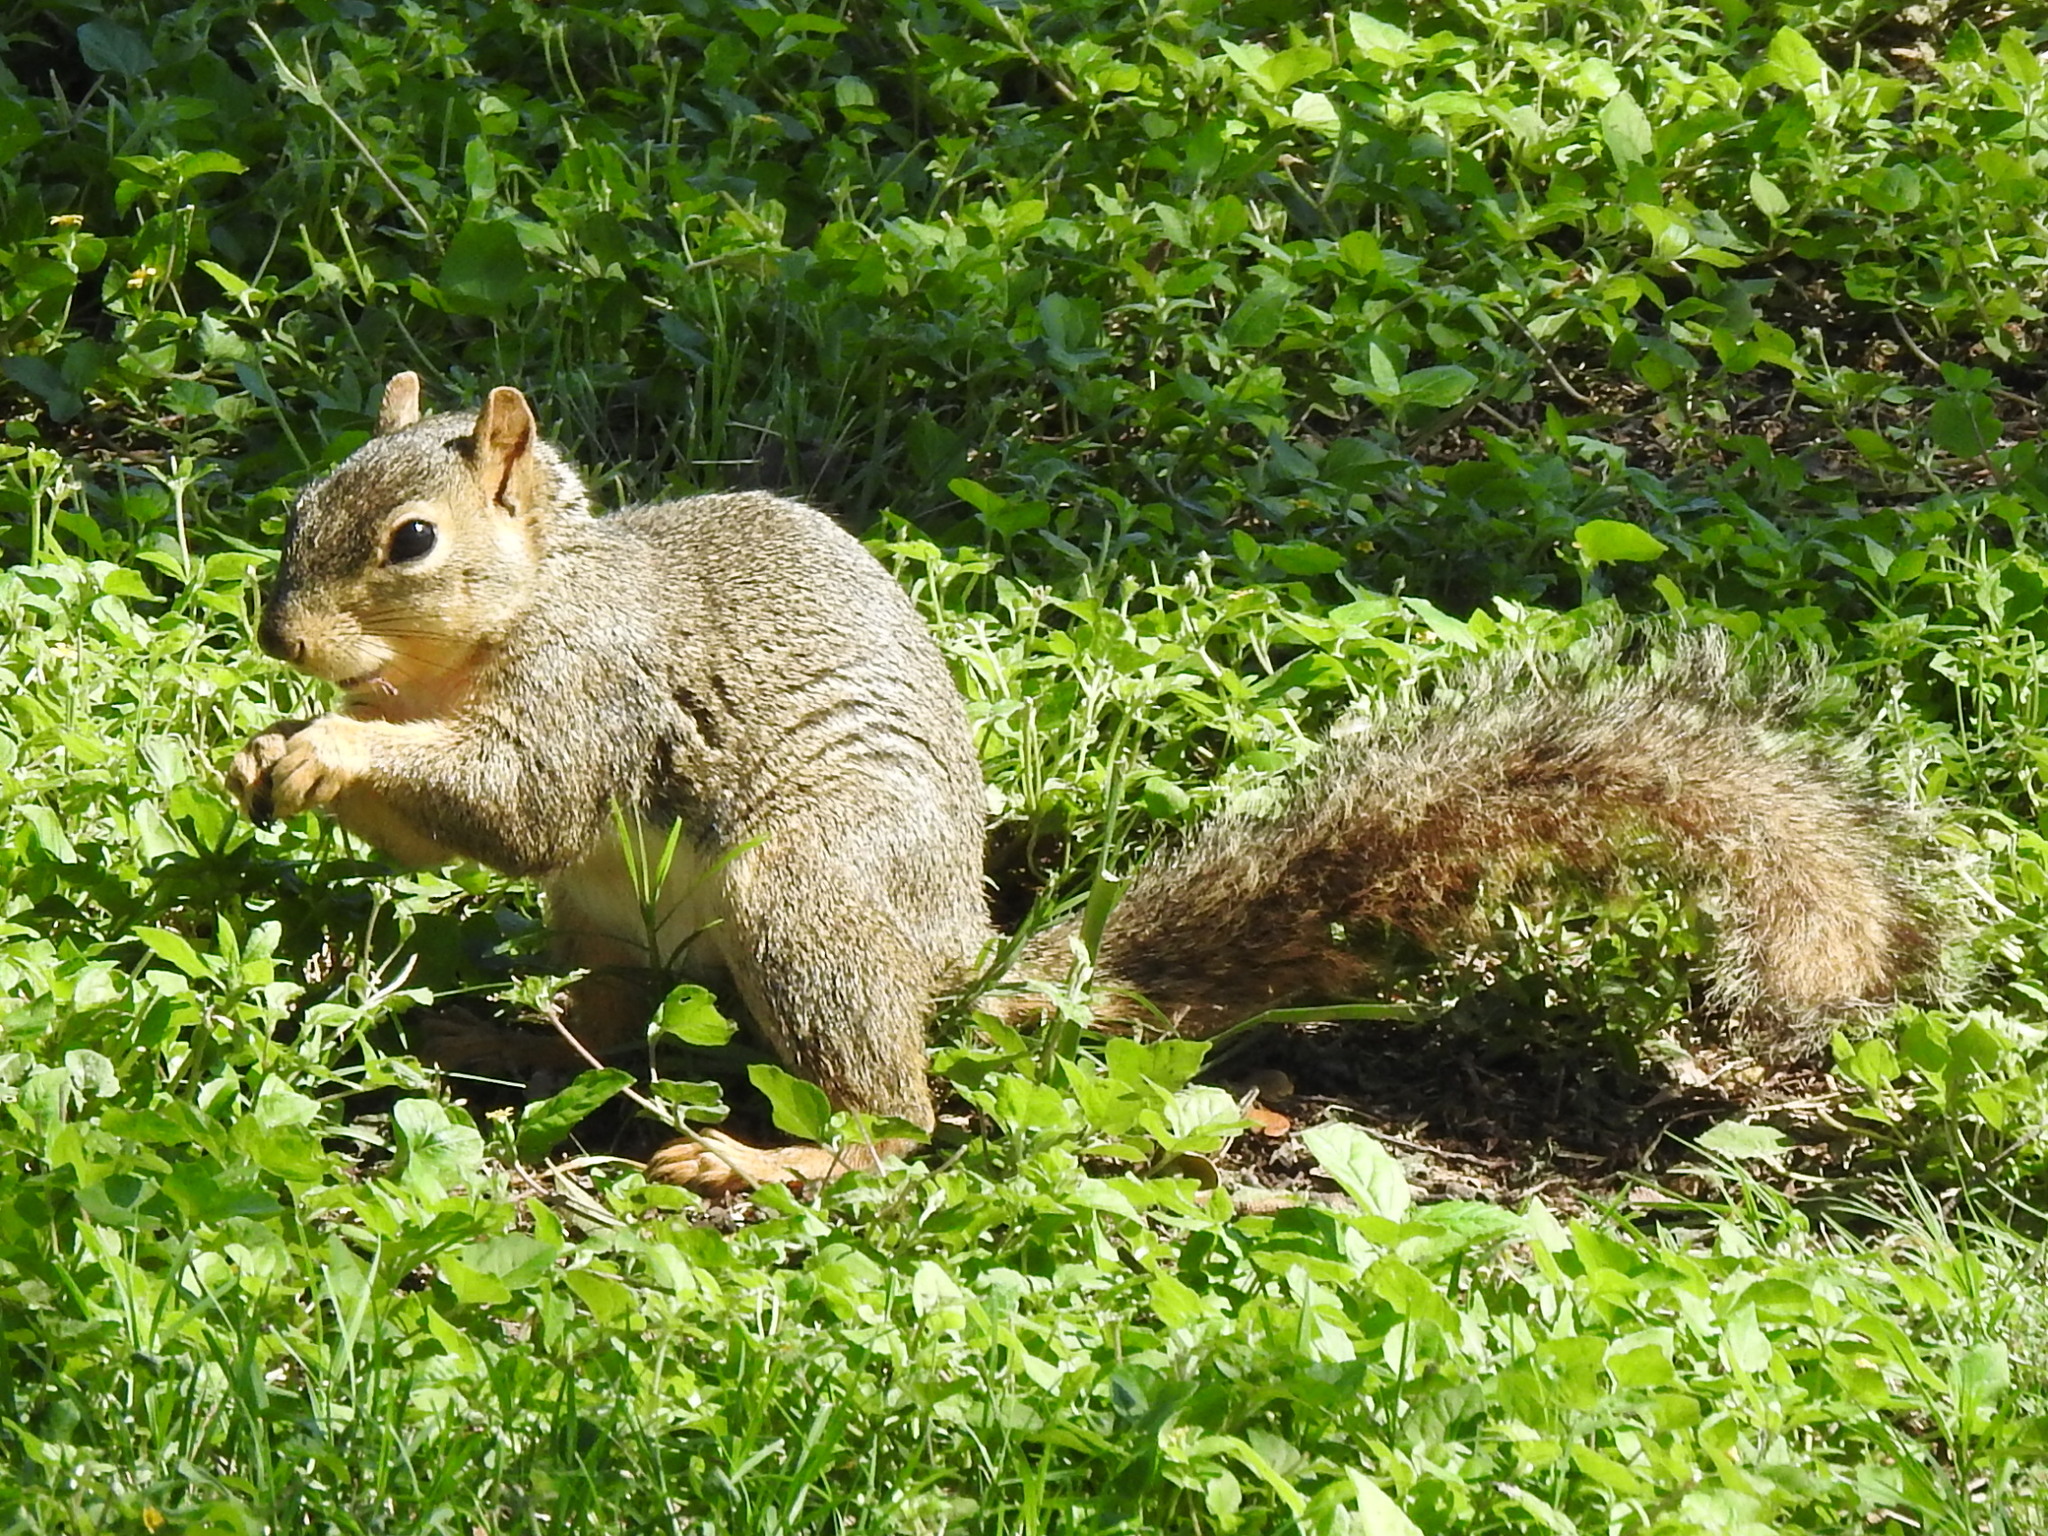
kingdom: Animalia
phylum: Chordata
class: Mammalia
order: Rodentia
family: Sciuridae
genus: Sciurus
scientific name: Sciurus niger
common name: Fox squirrel
